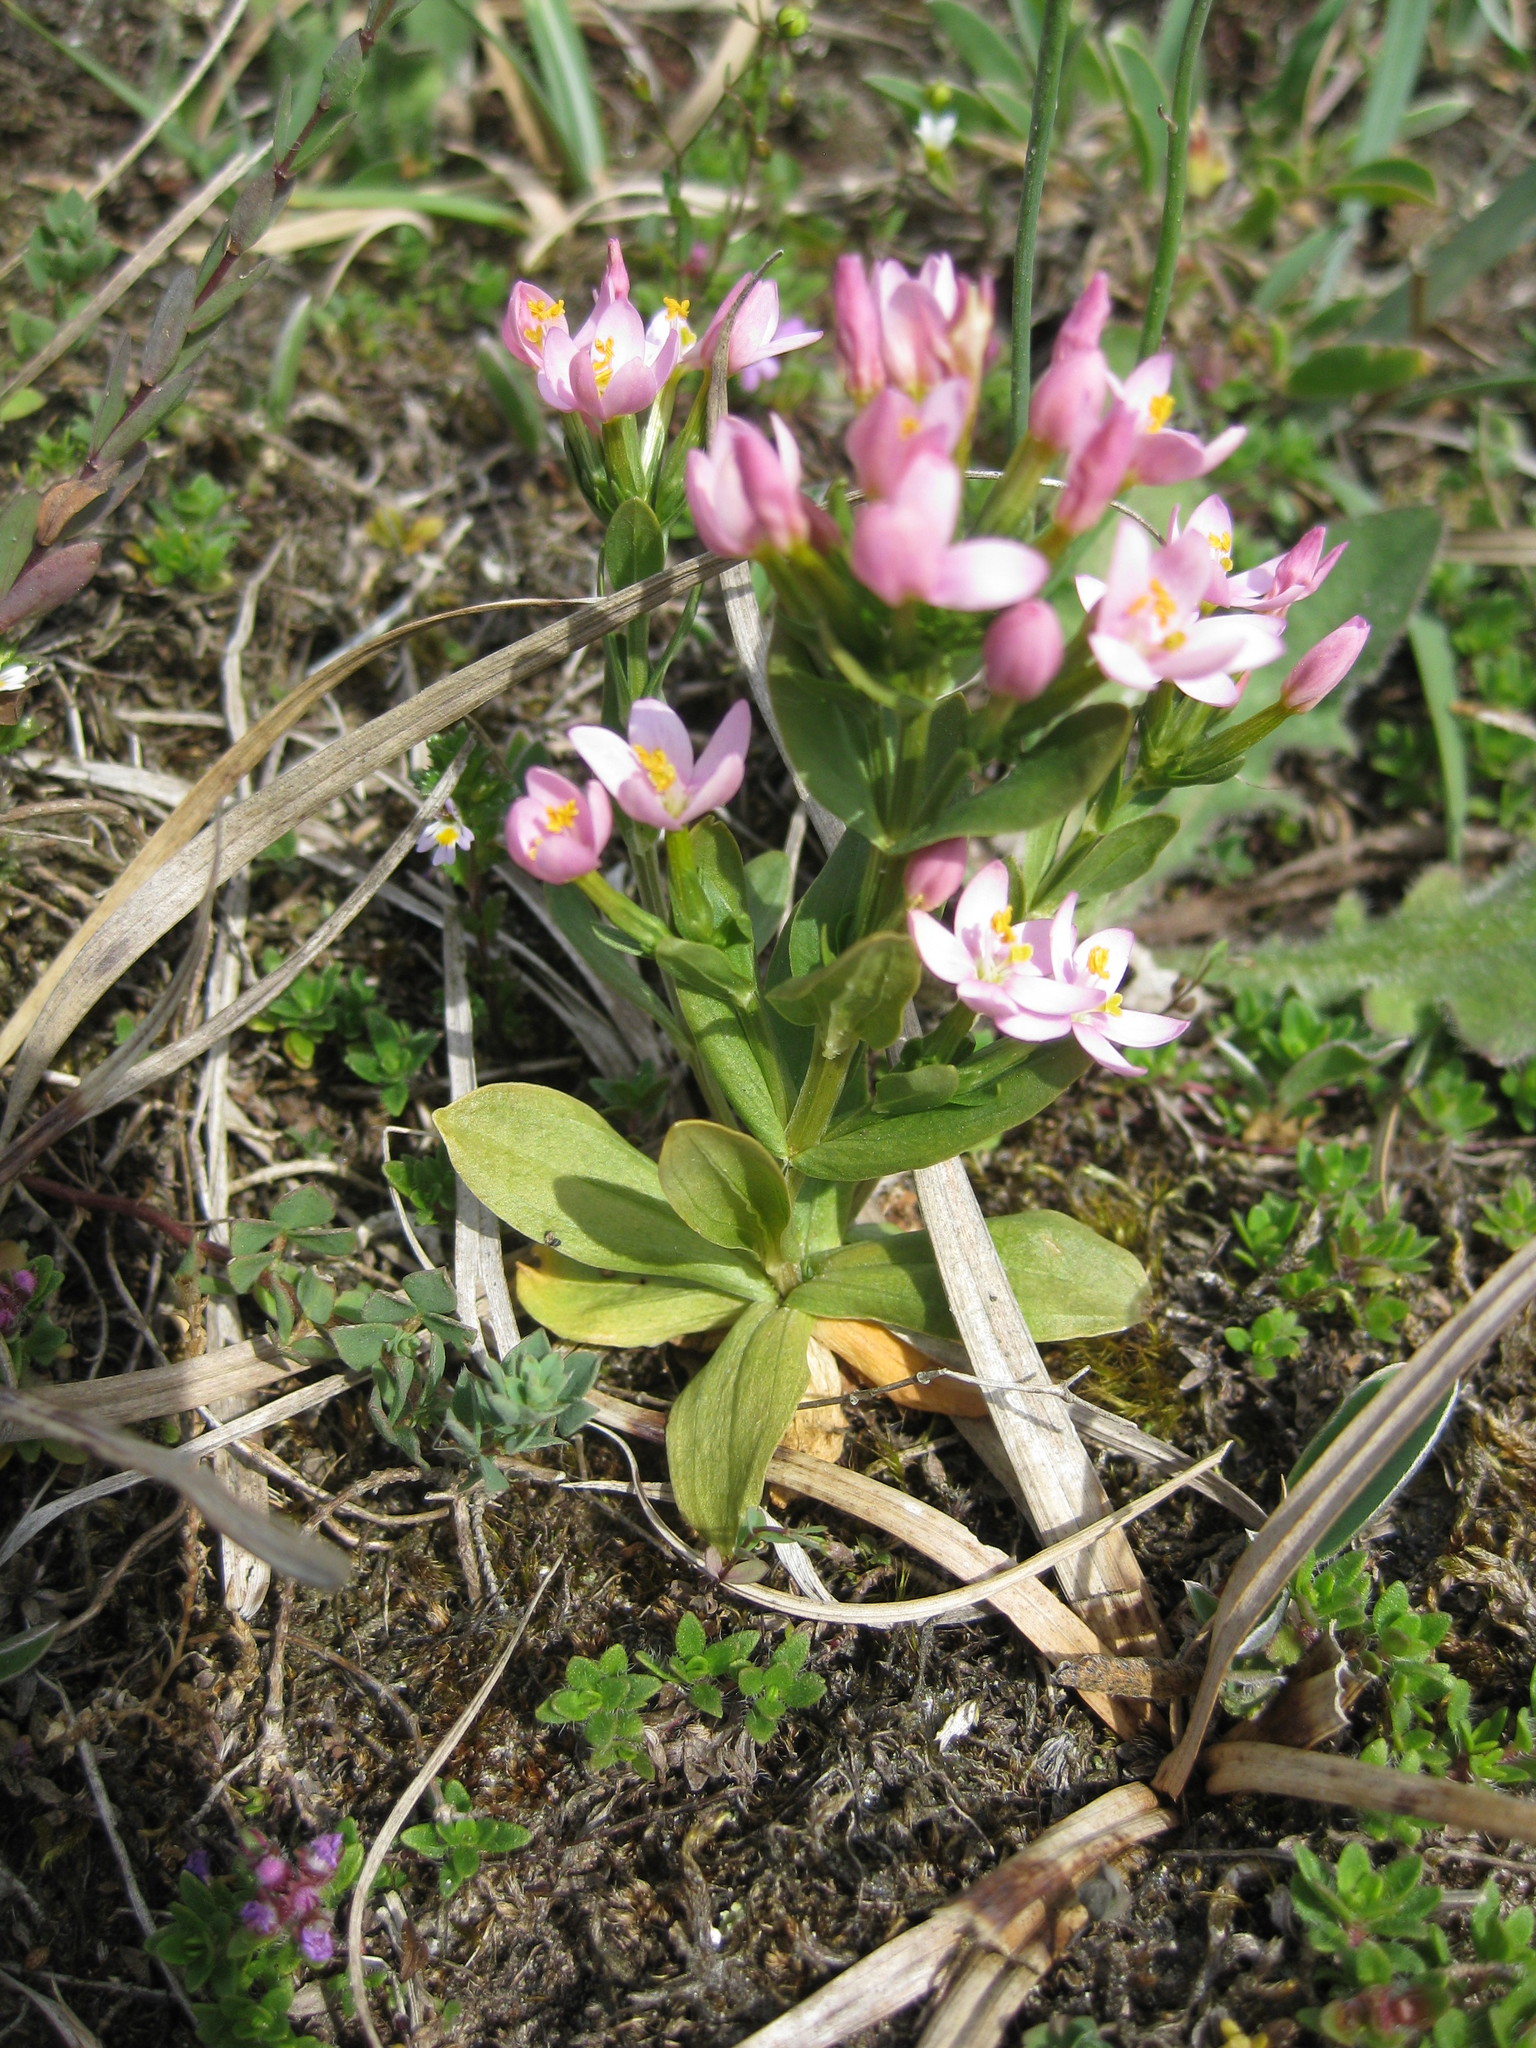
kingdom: Plantae
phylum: Tracheophyta
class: Magnoliopsida
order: Gentianales
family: Gentianaceae
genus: Centaurium
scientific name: Centaurium erythraea
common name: Common centaury
